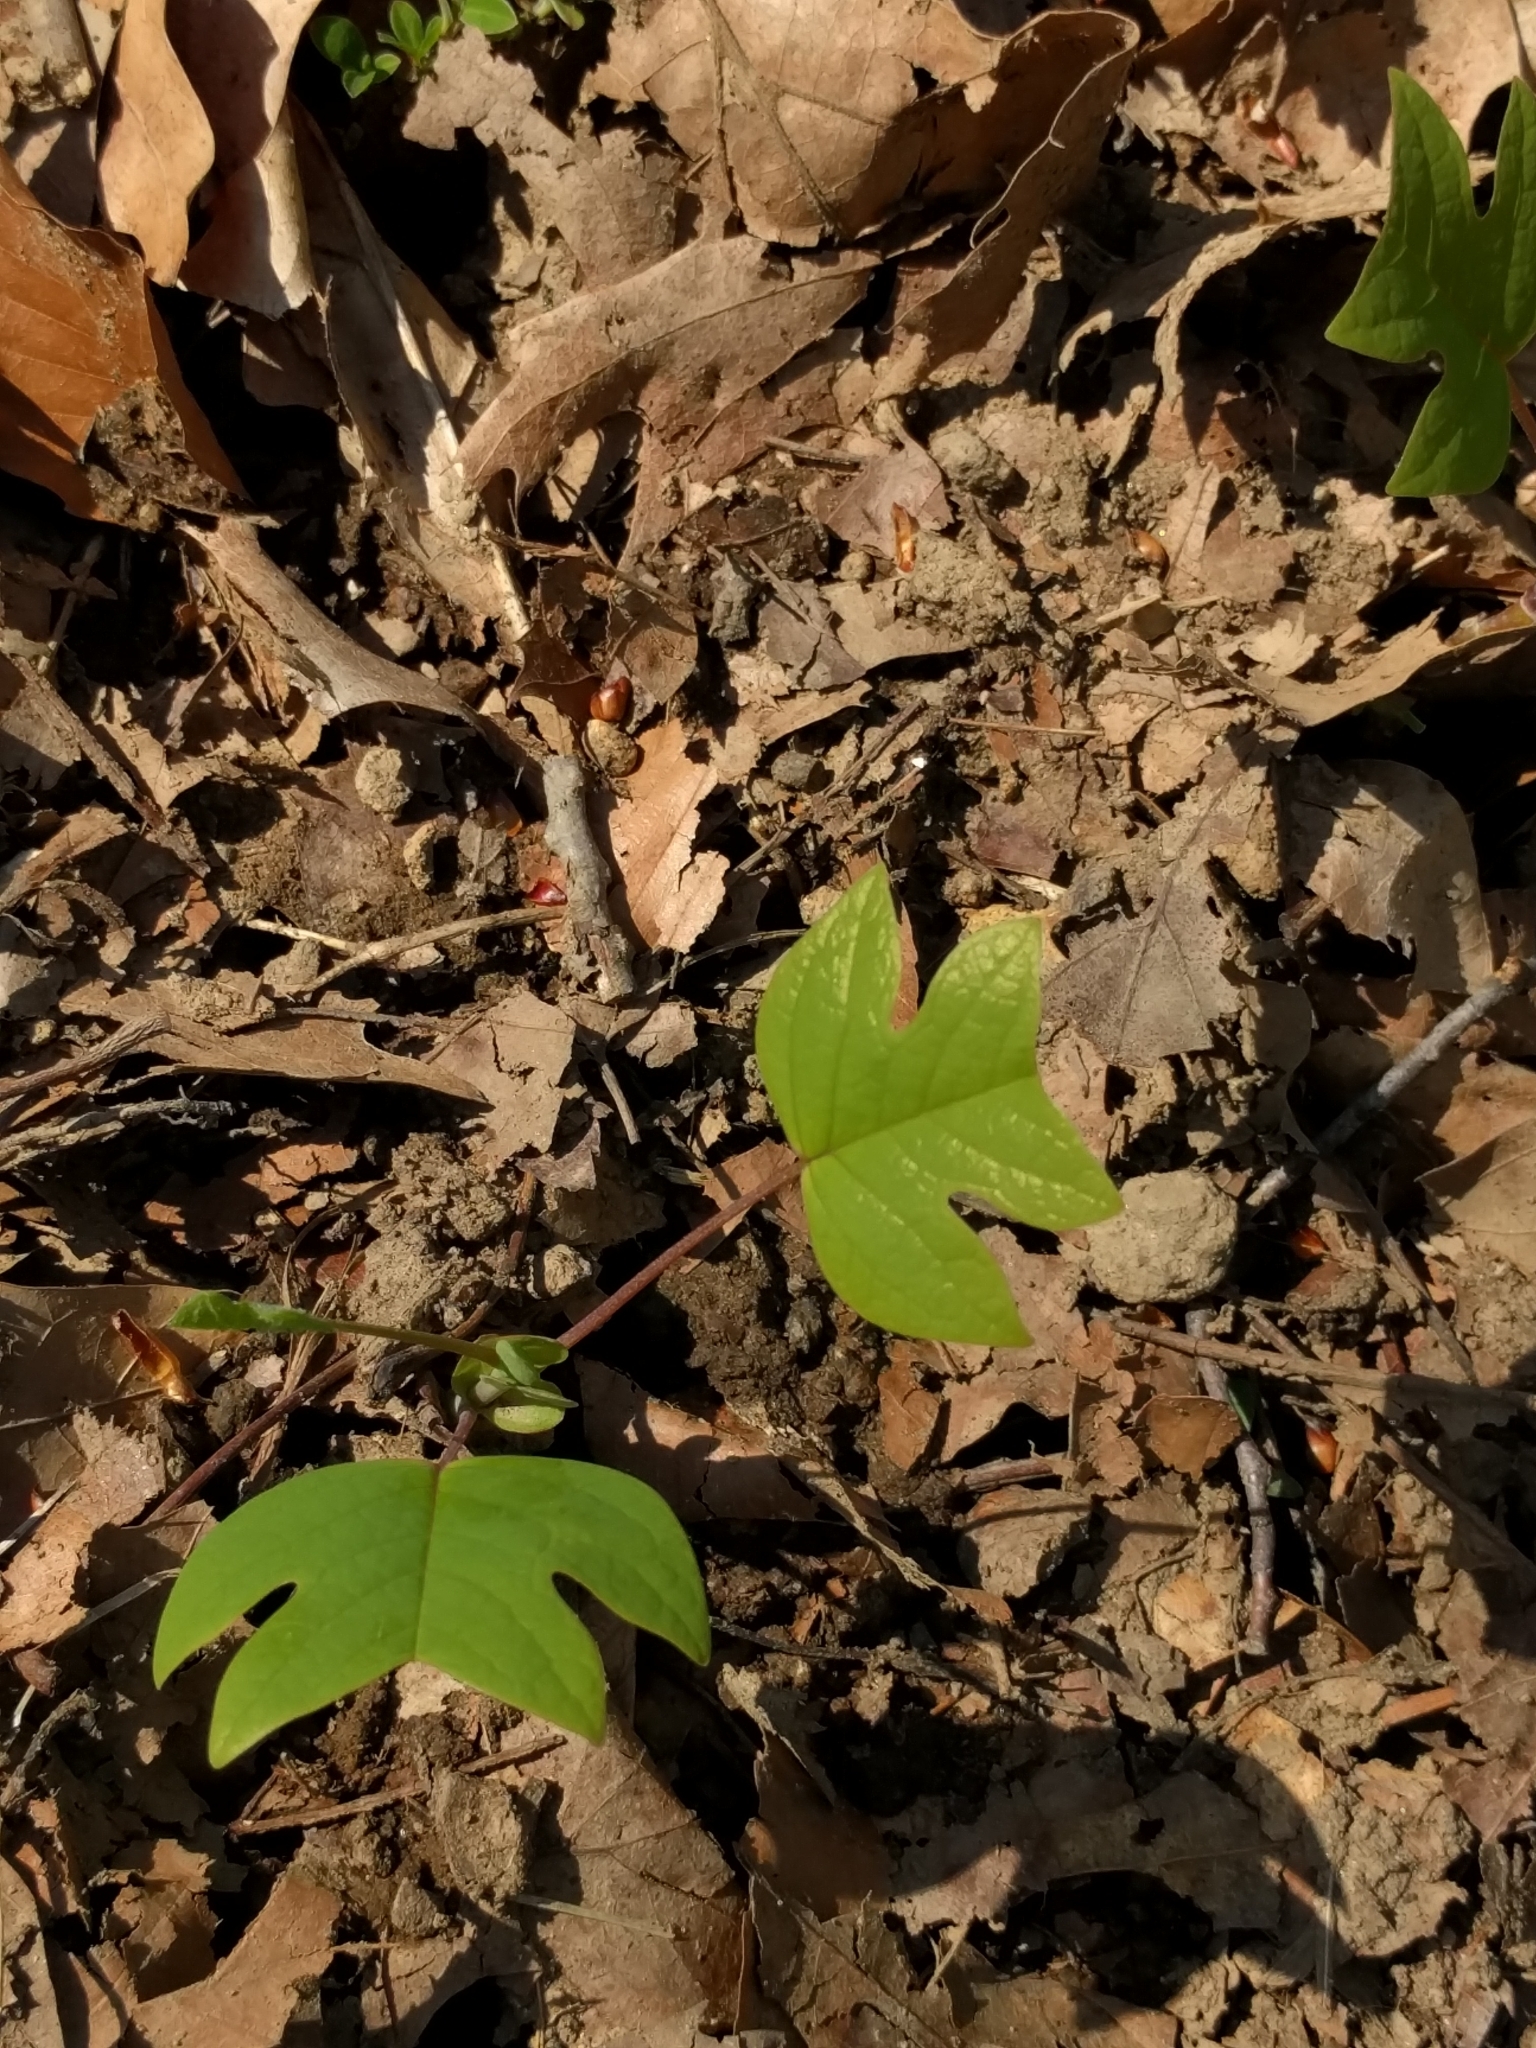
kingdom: Plantae
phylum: Tracheophyta
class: Magnoliopsida
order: Magnoliales
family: Magnoliaceae
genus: Liriodendron
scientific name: Liriodendron tulipifera
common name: Tulip tree
